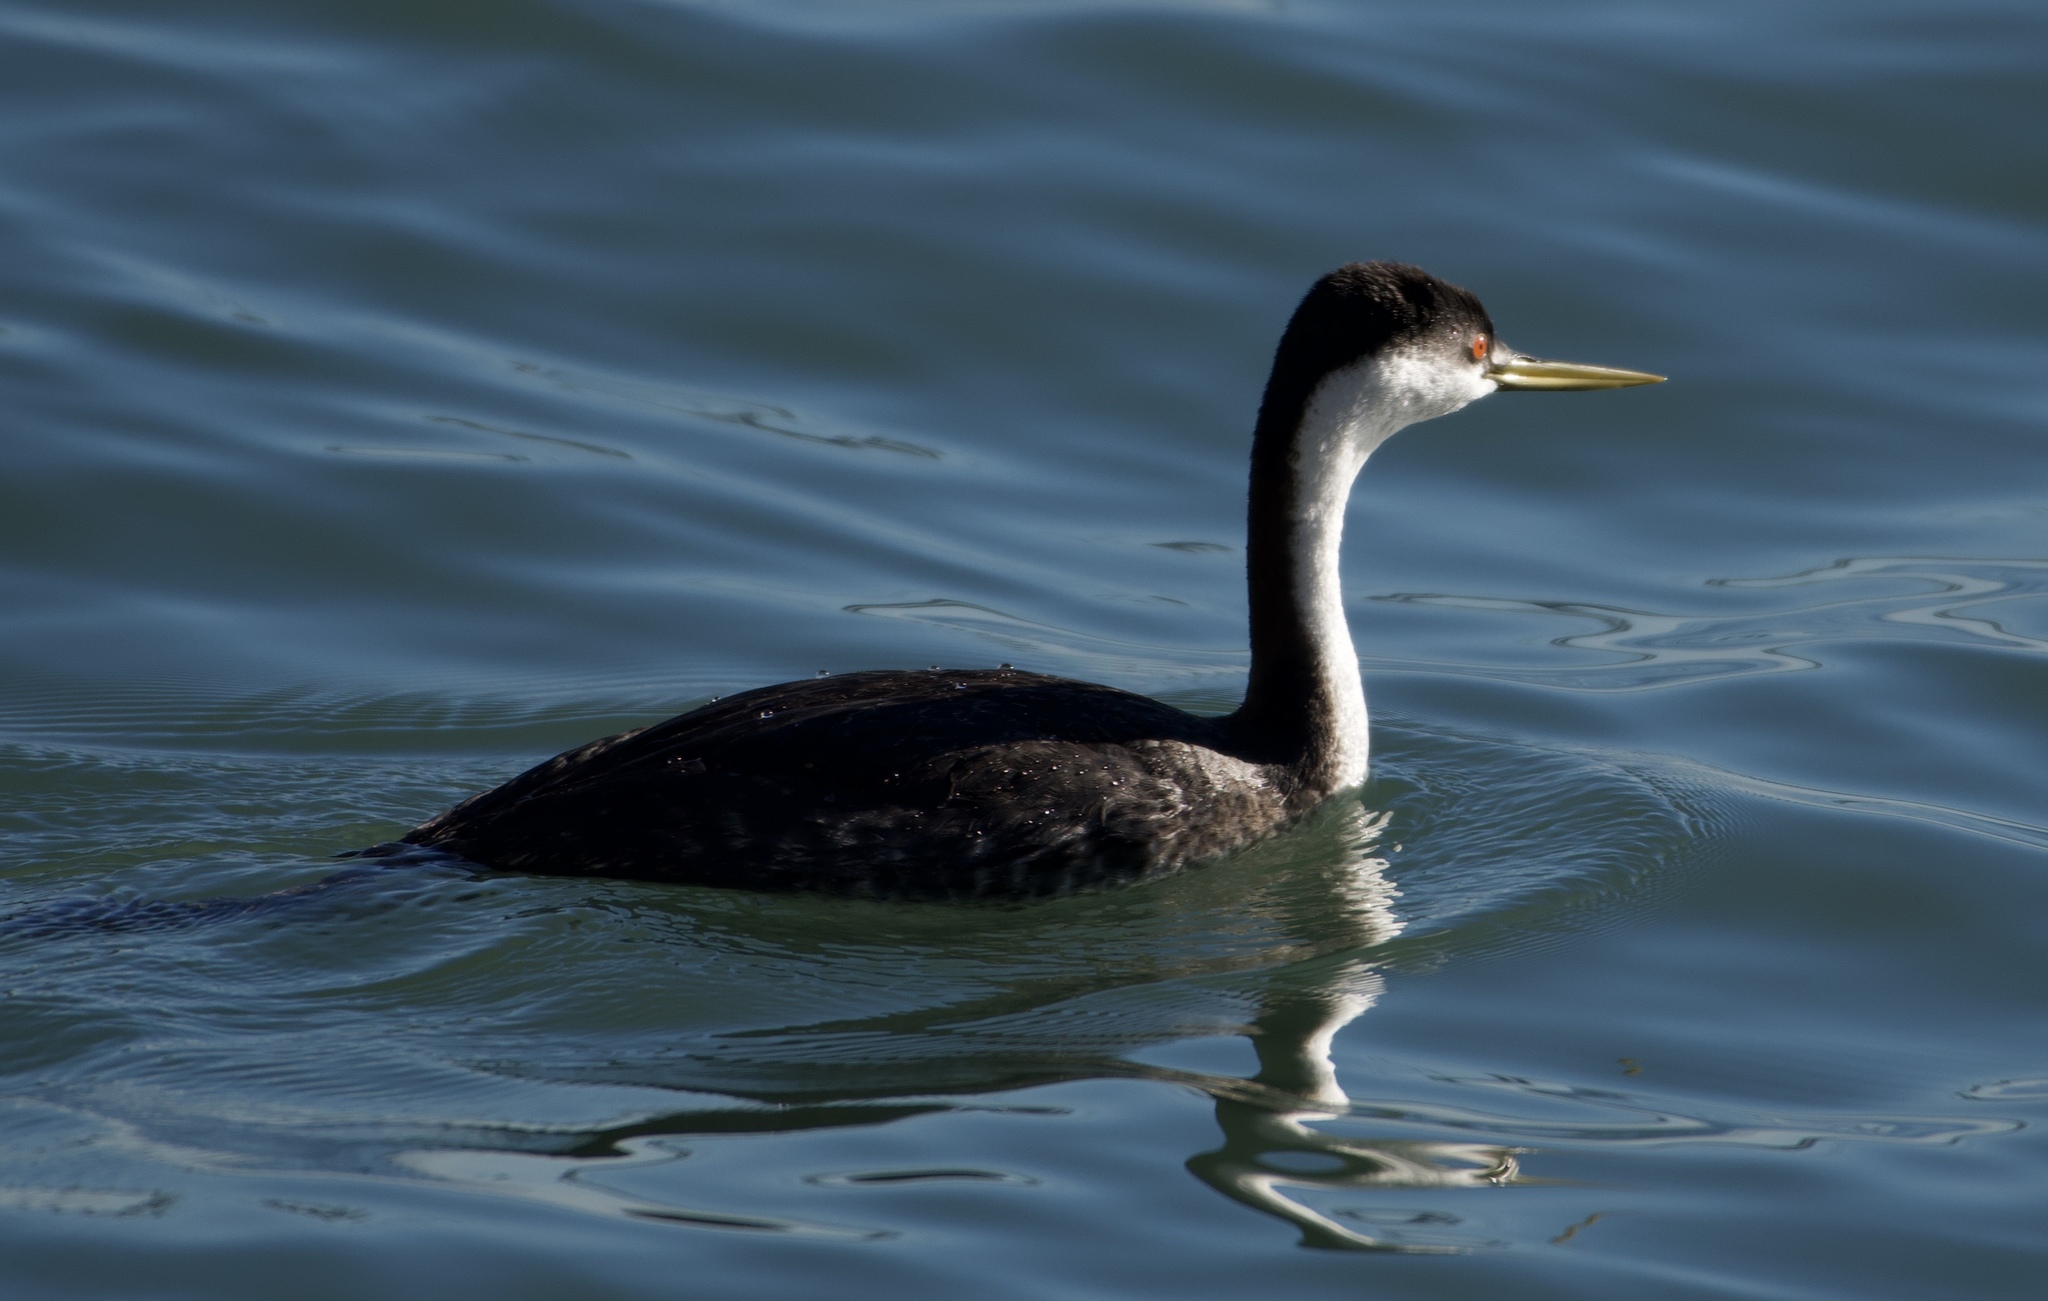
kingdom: Animalia
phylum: Chordata
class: Aves
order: Podicipediformes
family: Podicipedidae
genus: Aechmophorus
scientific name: Aechmophorus occidentalis
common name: Western grebe
